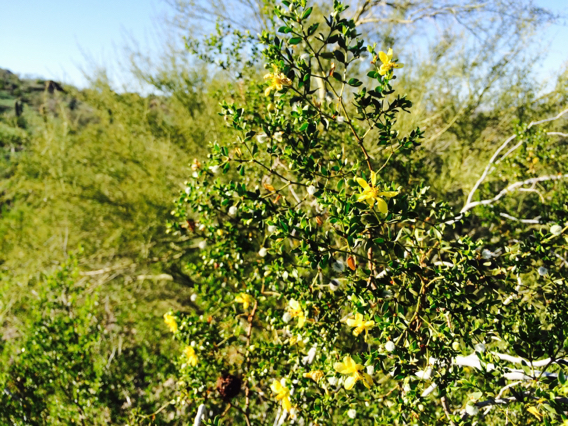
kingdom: Plantae
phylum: Tracheophyta
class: Magnoliopsida
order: Zygophyllales
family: Zygophyllaceae
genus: Larrea
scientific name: Larrea tridentata
